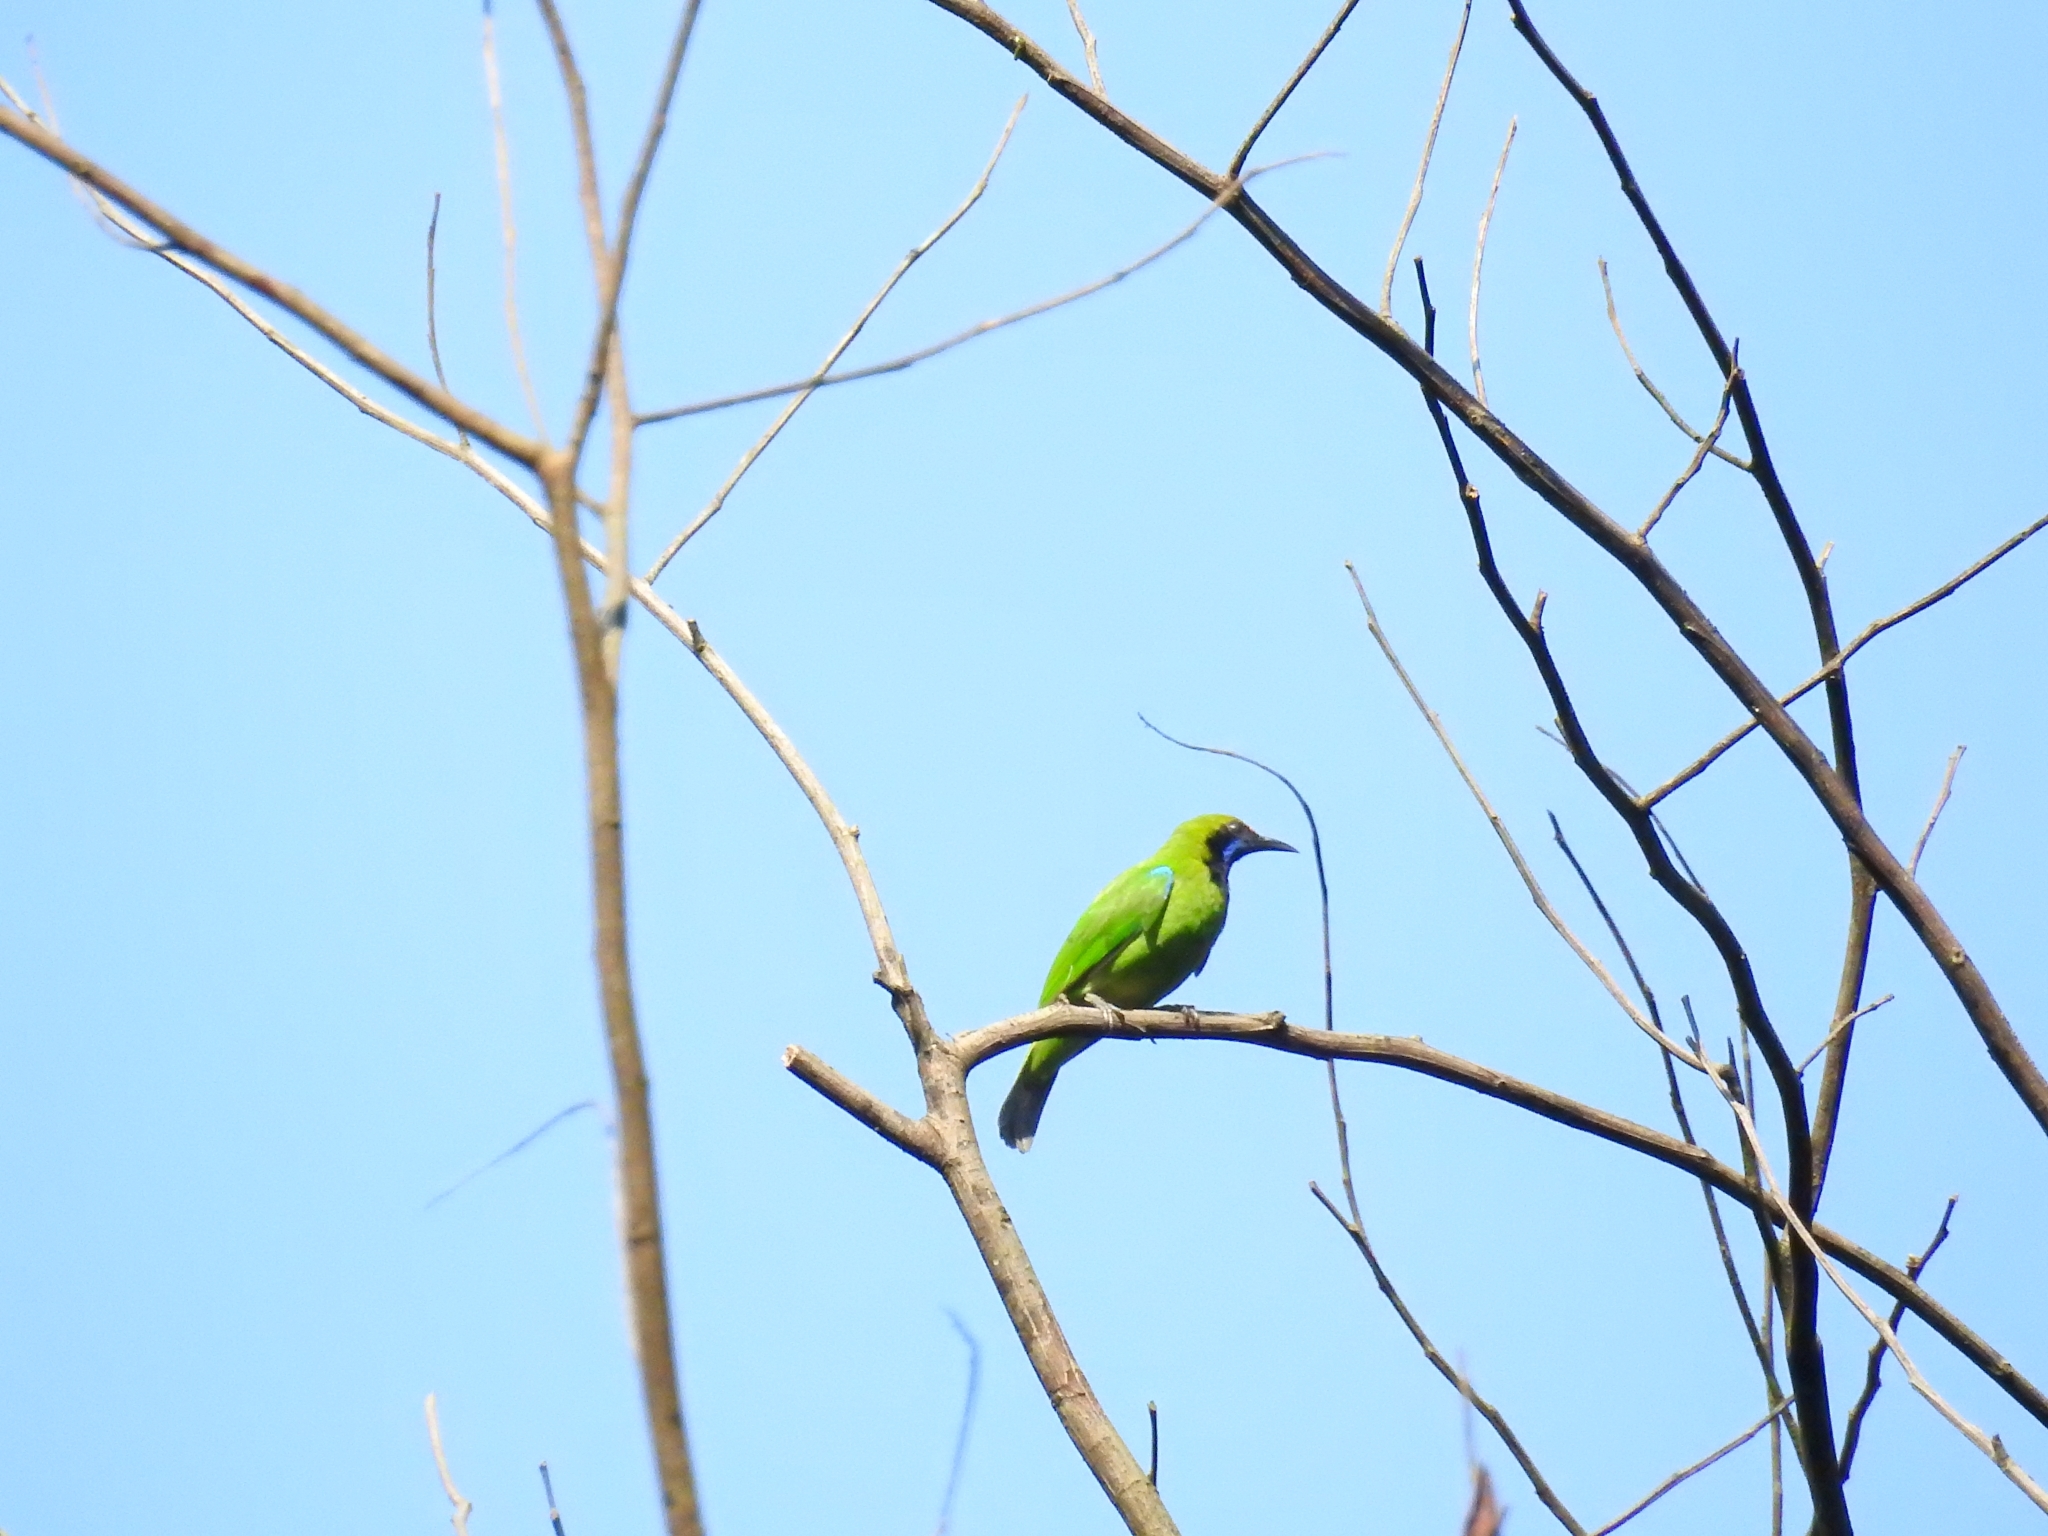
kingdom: Animalia
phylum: Chordata
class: Aves
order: Passeriformes
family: Chloropseidae
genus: Chloropsis
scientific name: Chloropsis aurifrons
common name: Golden-fronted leafbird
